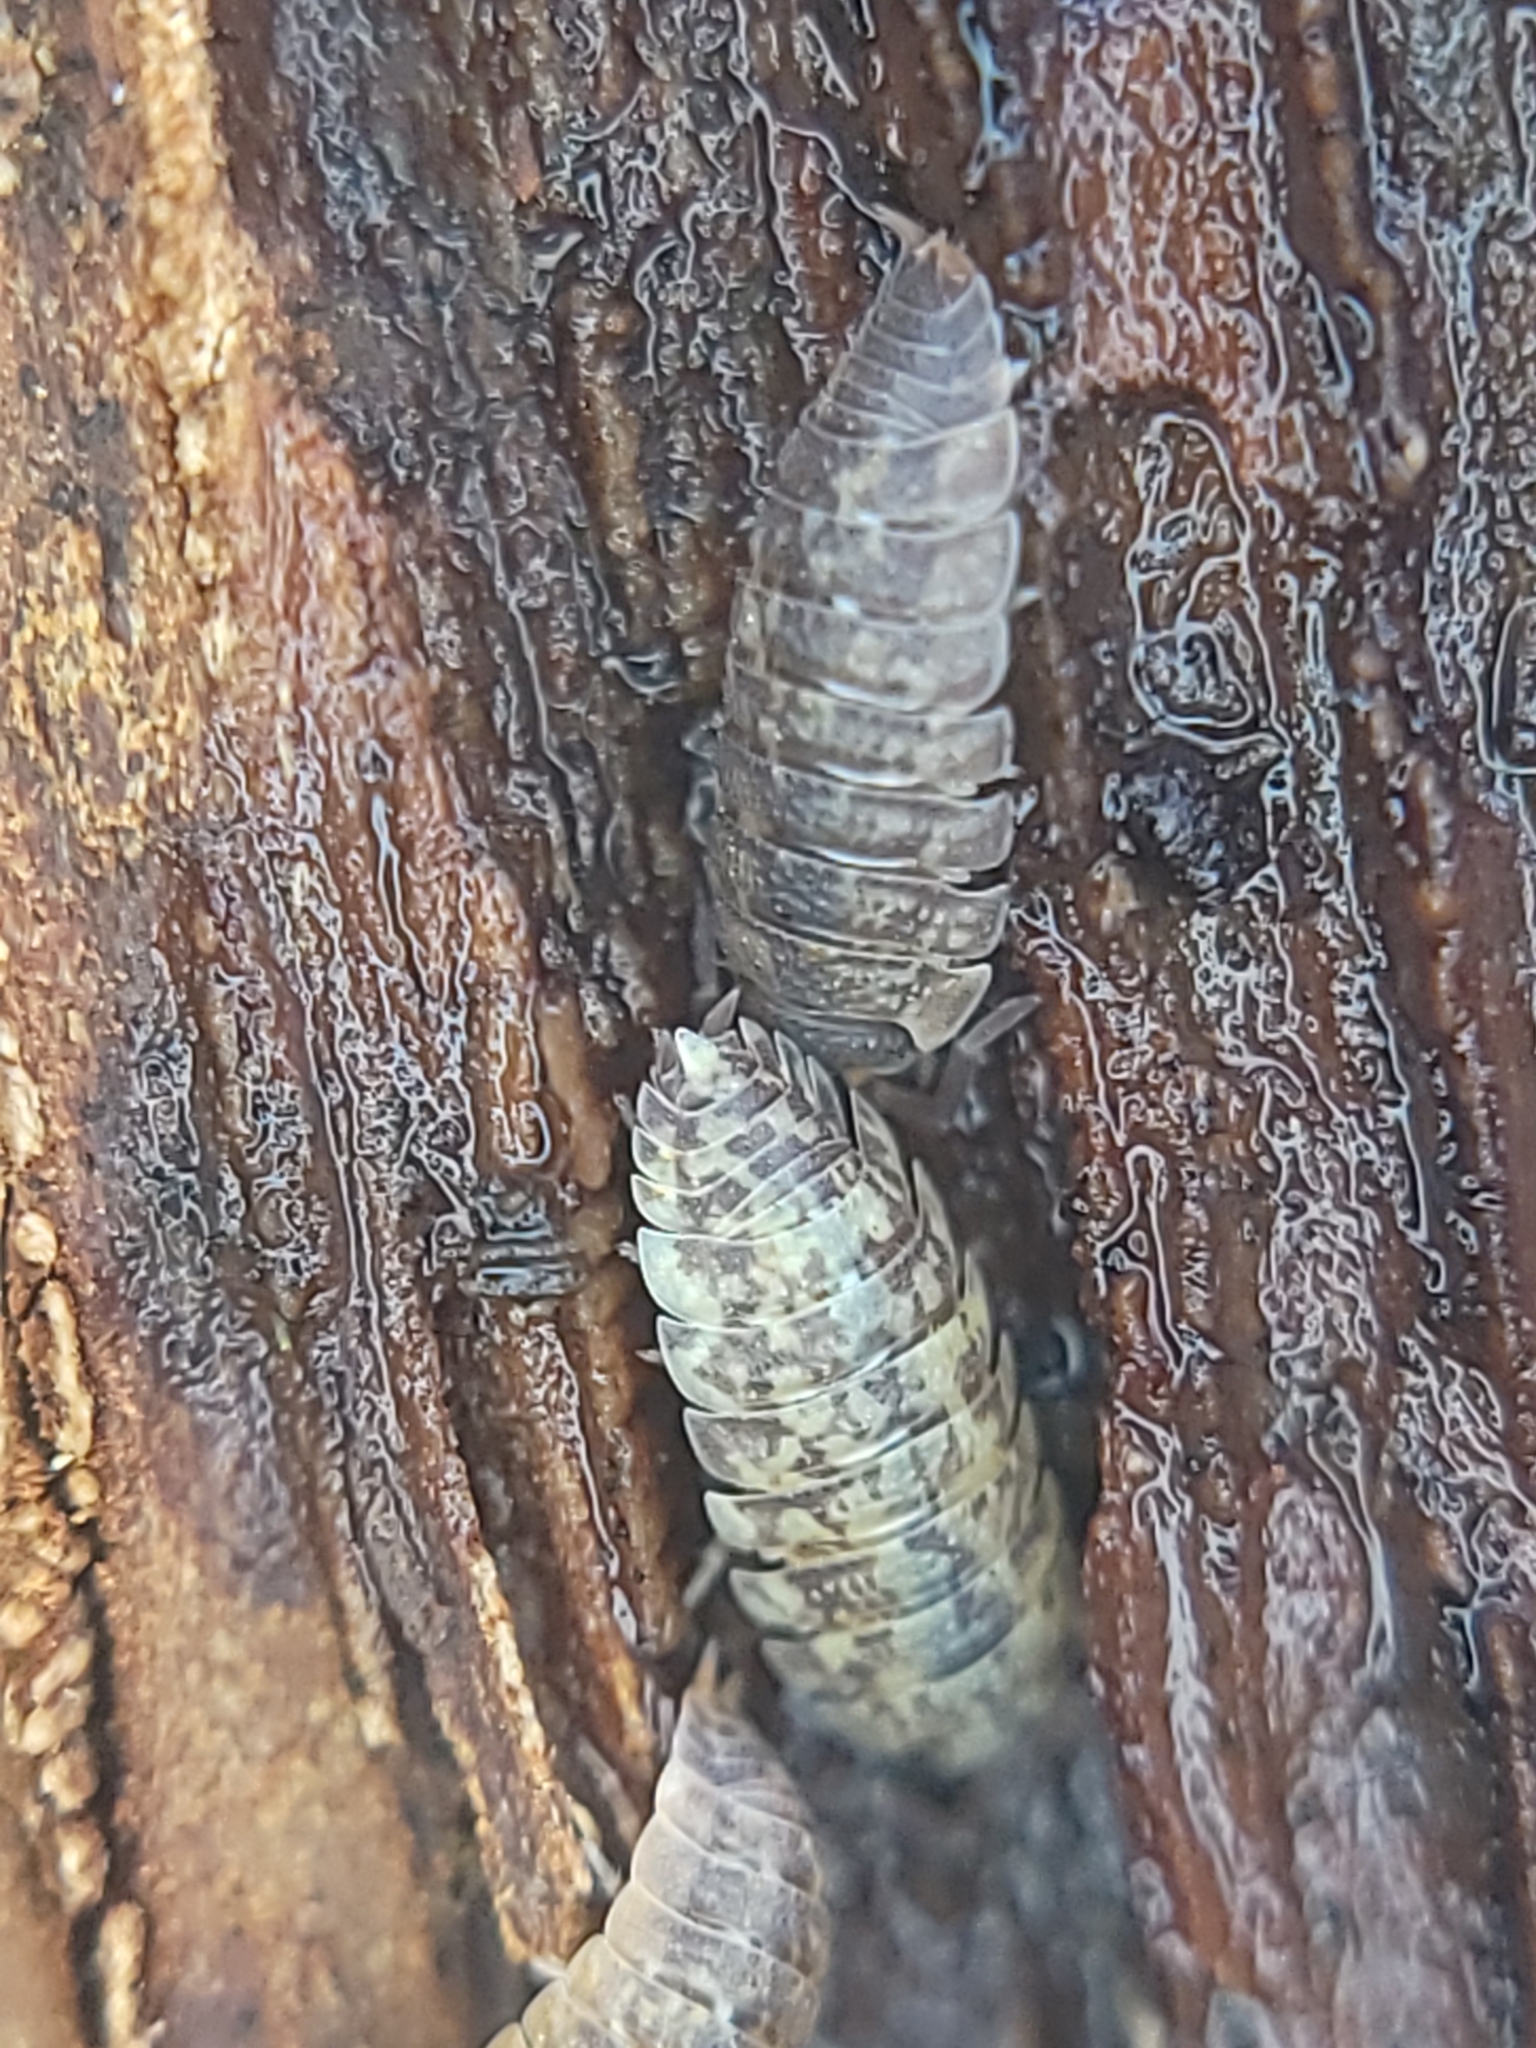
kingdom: Animalia
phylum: Arthropoda
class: Malacostraca
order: Isopoda
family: Porcellionidae
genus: Porcellio
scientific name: Porcellio scaber
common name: Common rough woodlouse
